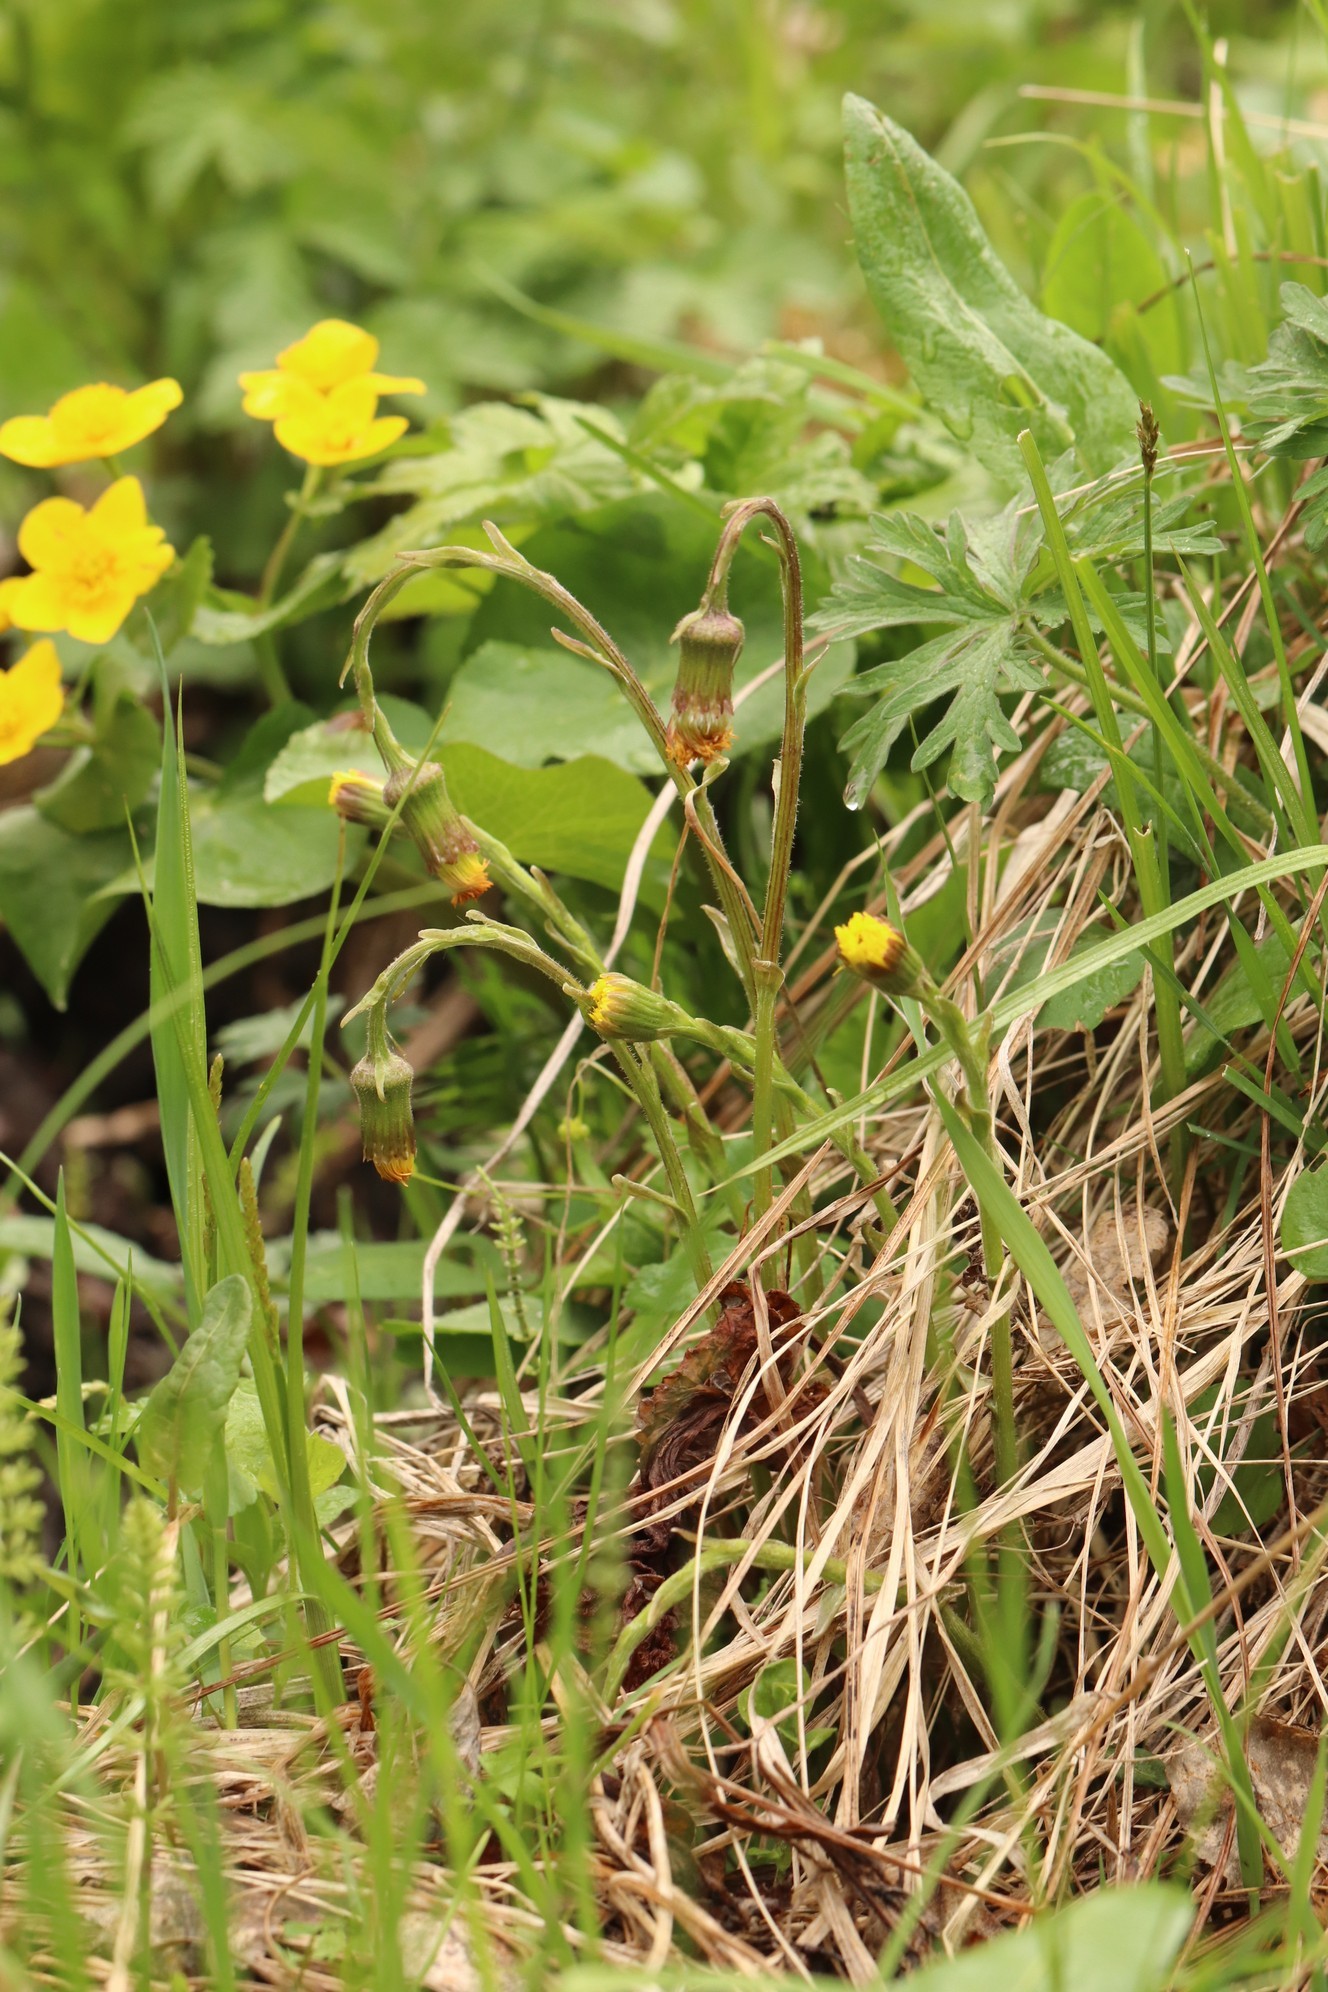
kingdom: Plantae
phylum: Tracheophyta
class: Magnoliopsida
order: Asterales
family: Asteraceae
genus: Tussilago
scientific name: Tussilago farfara
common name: Coltsfoot
